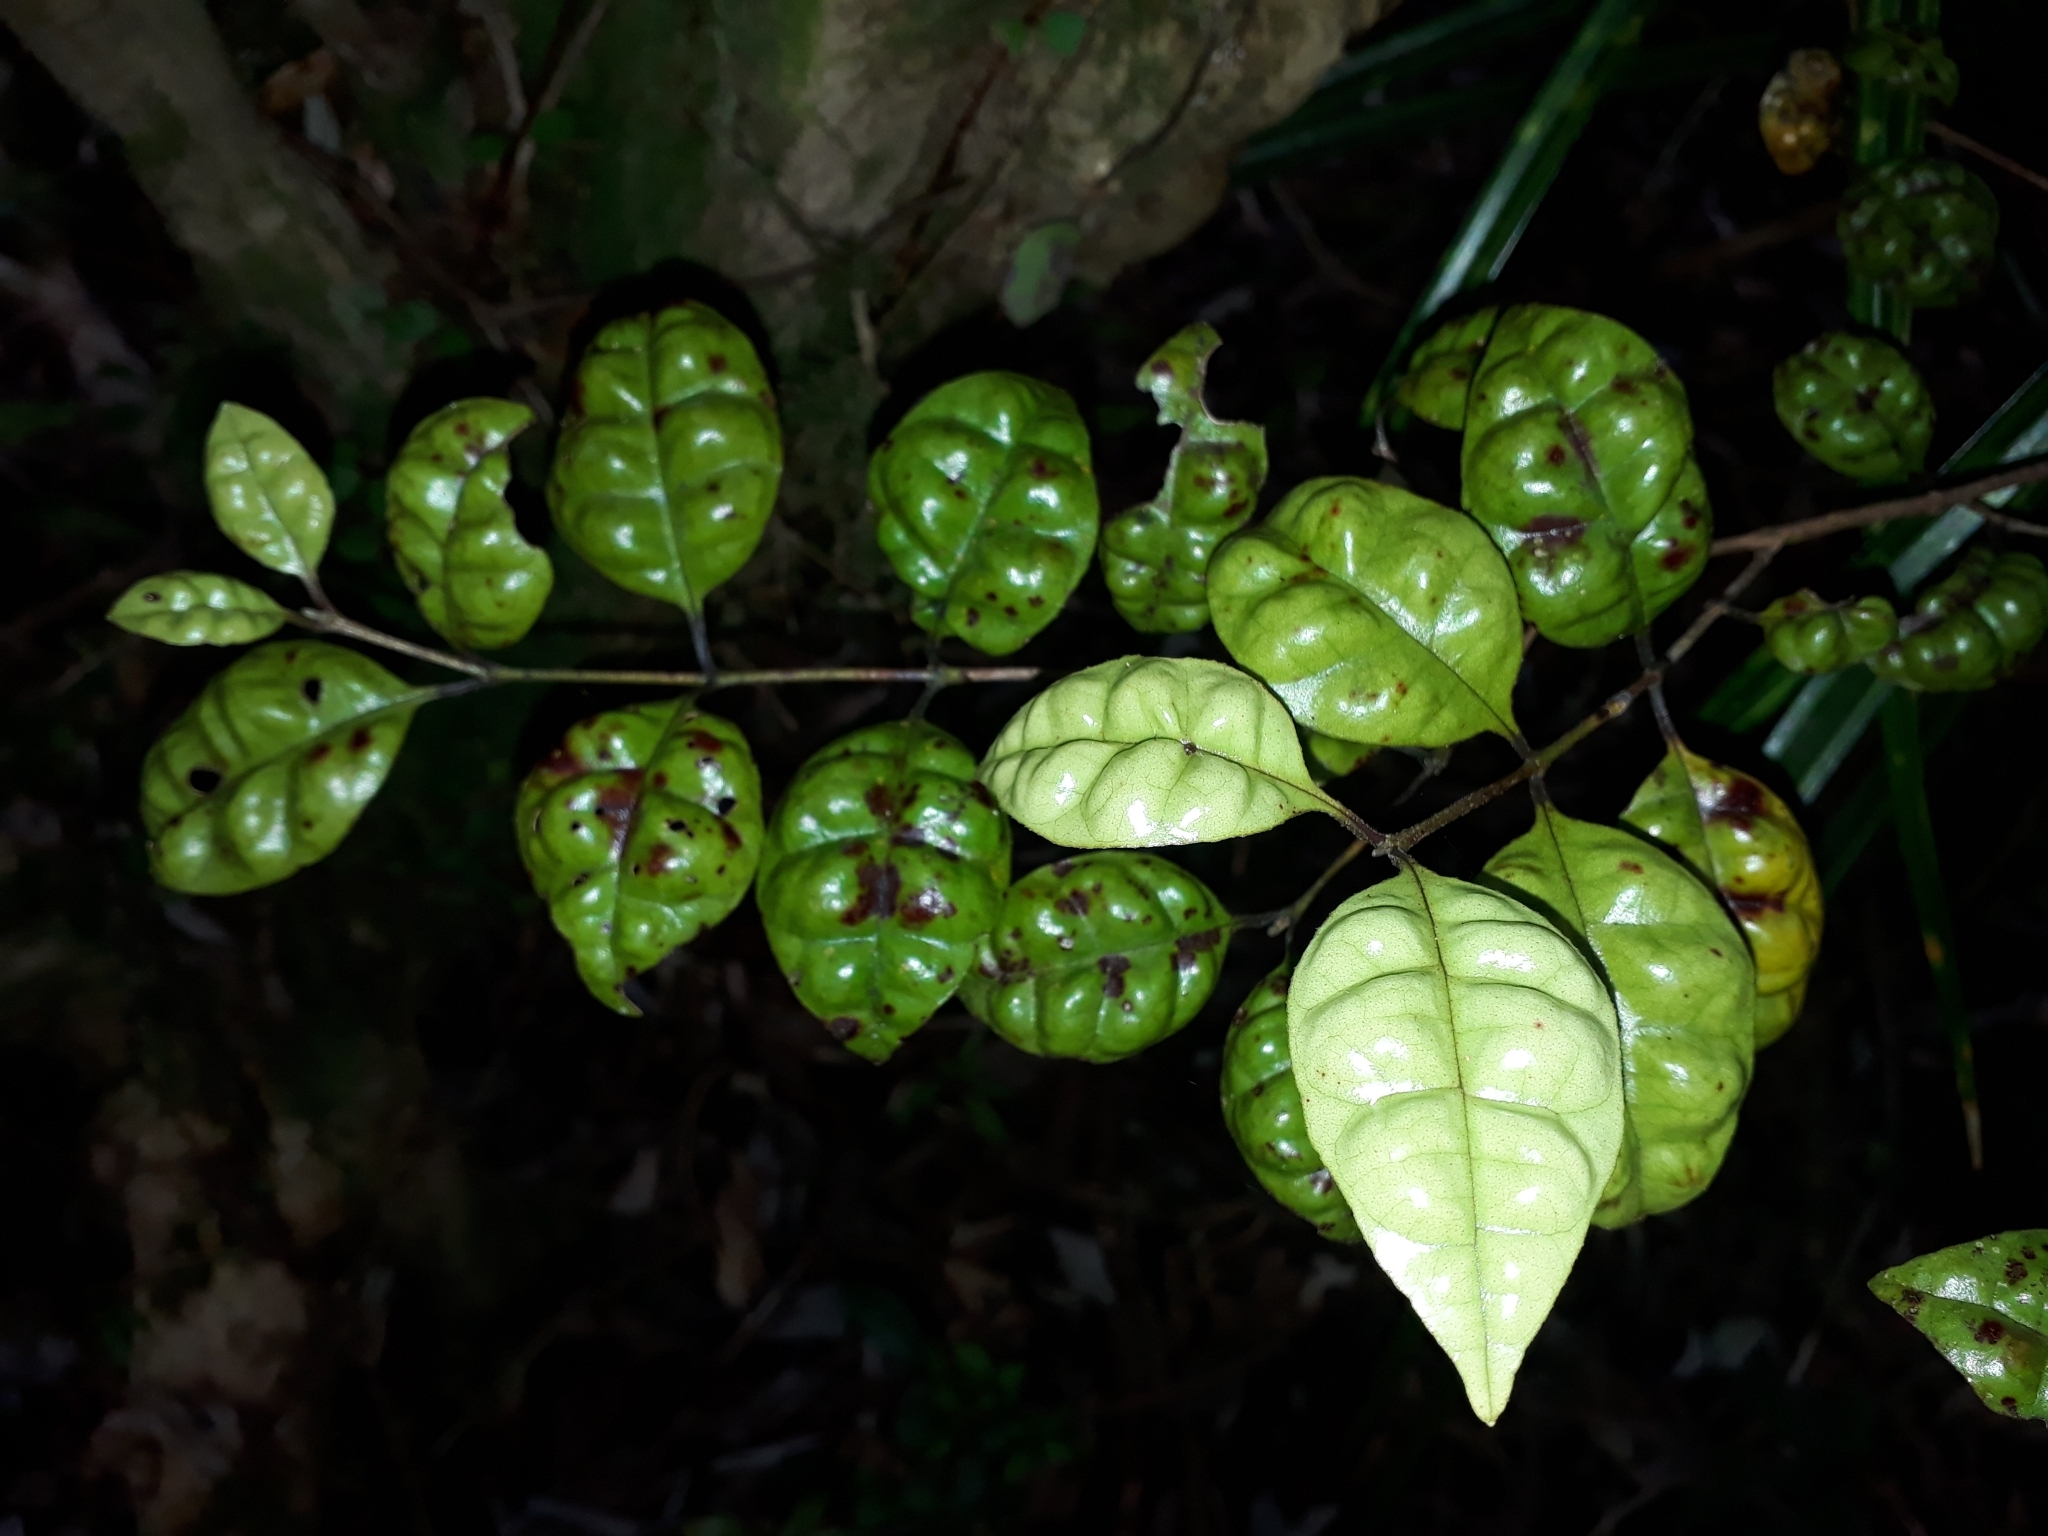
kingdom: Plantae
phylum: Tracheophyta
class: Magnoliopsida
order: Myrtales
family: Myrtaceae
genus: Lophomyrtus
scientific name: Lophomyrtus bullata
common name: Rama rama
